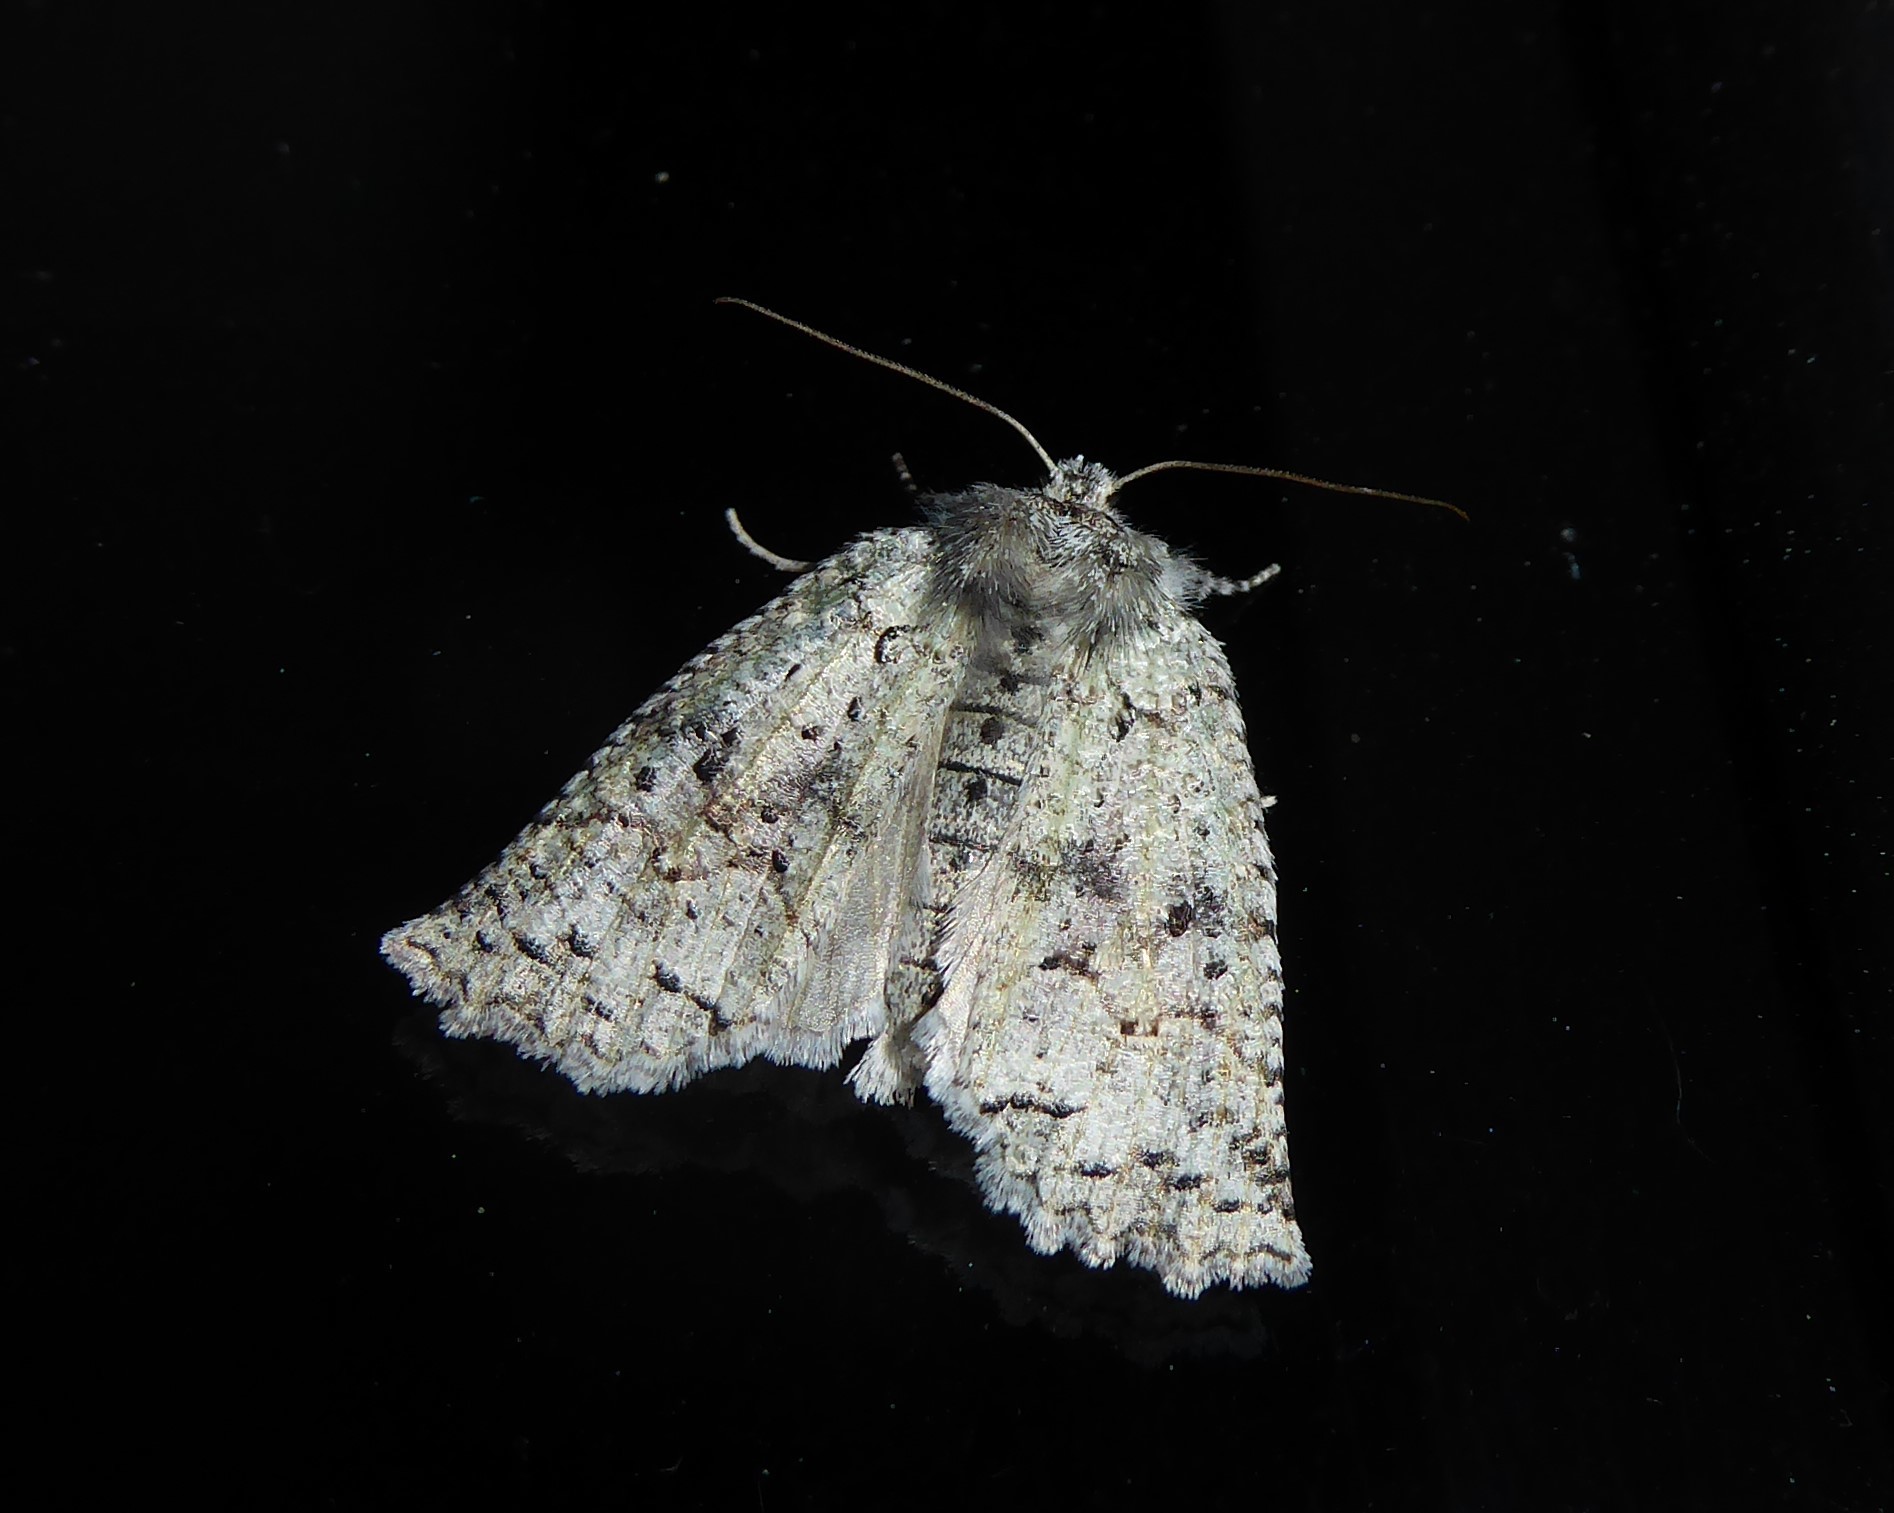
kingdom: Animalia
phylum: Arthropoda
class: Insecta
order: Lepidoptera
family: Geometridae
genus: Declana
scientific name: Declana floccosa
